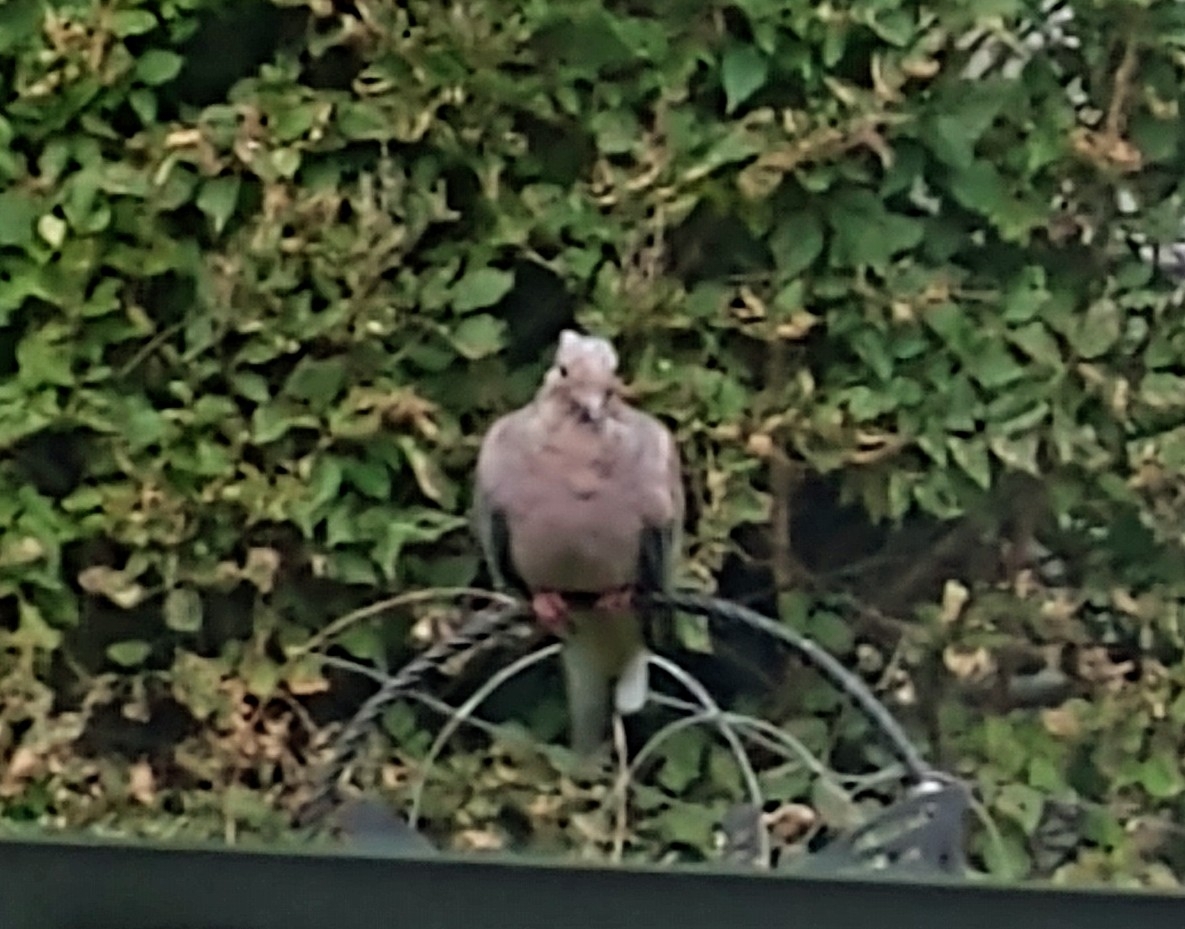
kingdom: Animalia
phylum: Chordata
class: Aves
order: Columbiformes
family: Columbidae
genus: Zenaida
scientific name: Zenaida macroura
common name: Mourning dove
